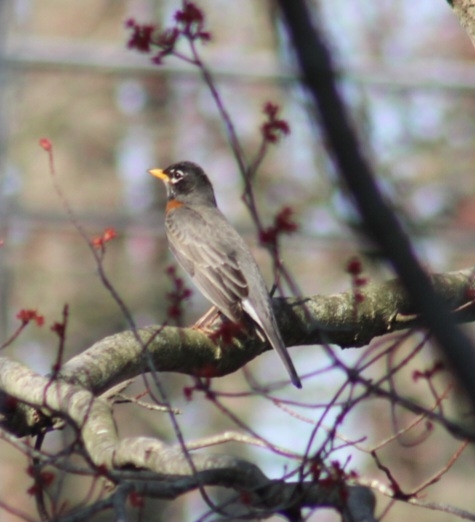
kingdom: Animalia
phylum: Chordata
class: Aves
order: Passeriformes
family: Turdidae
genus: Turdus
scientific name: Turdus migratorius
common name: American robin
